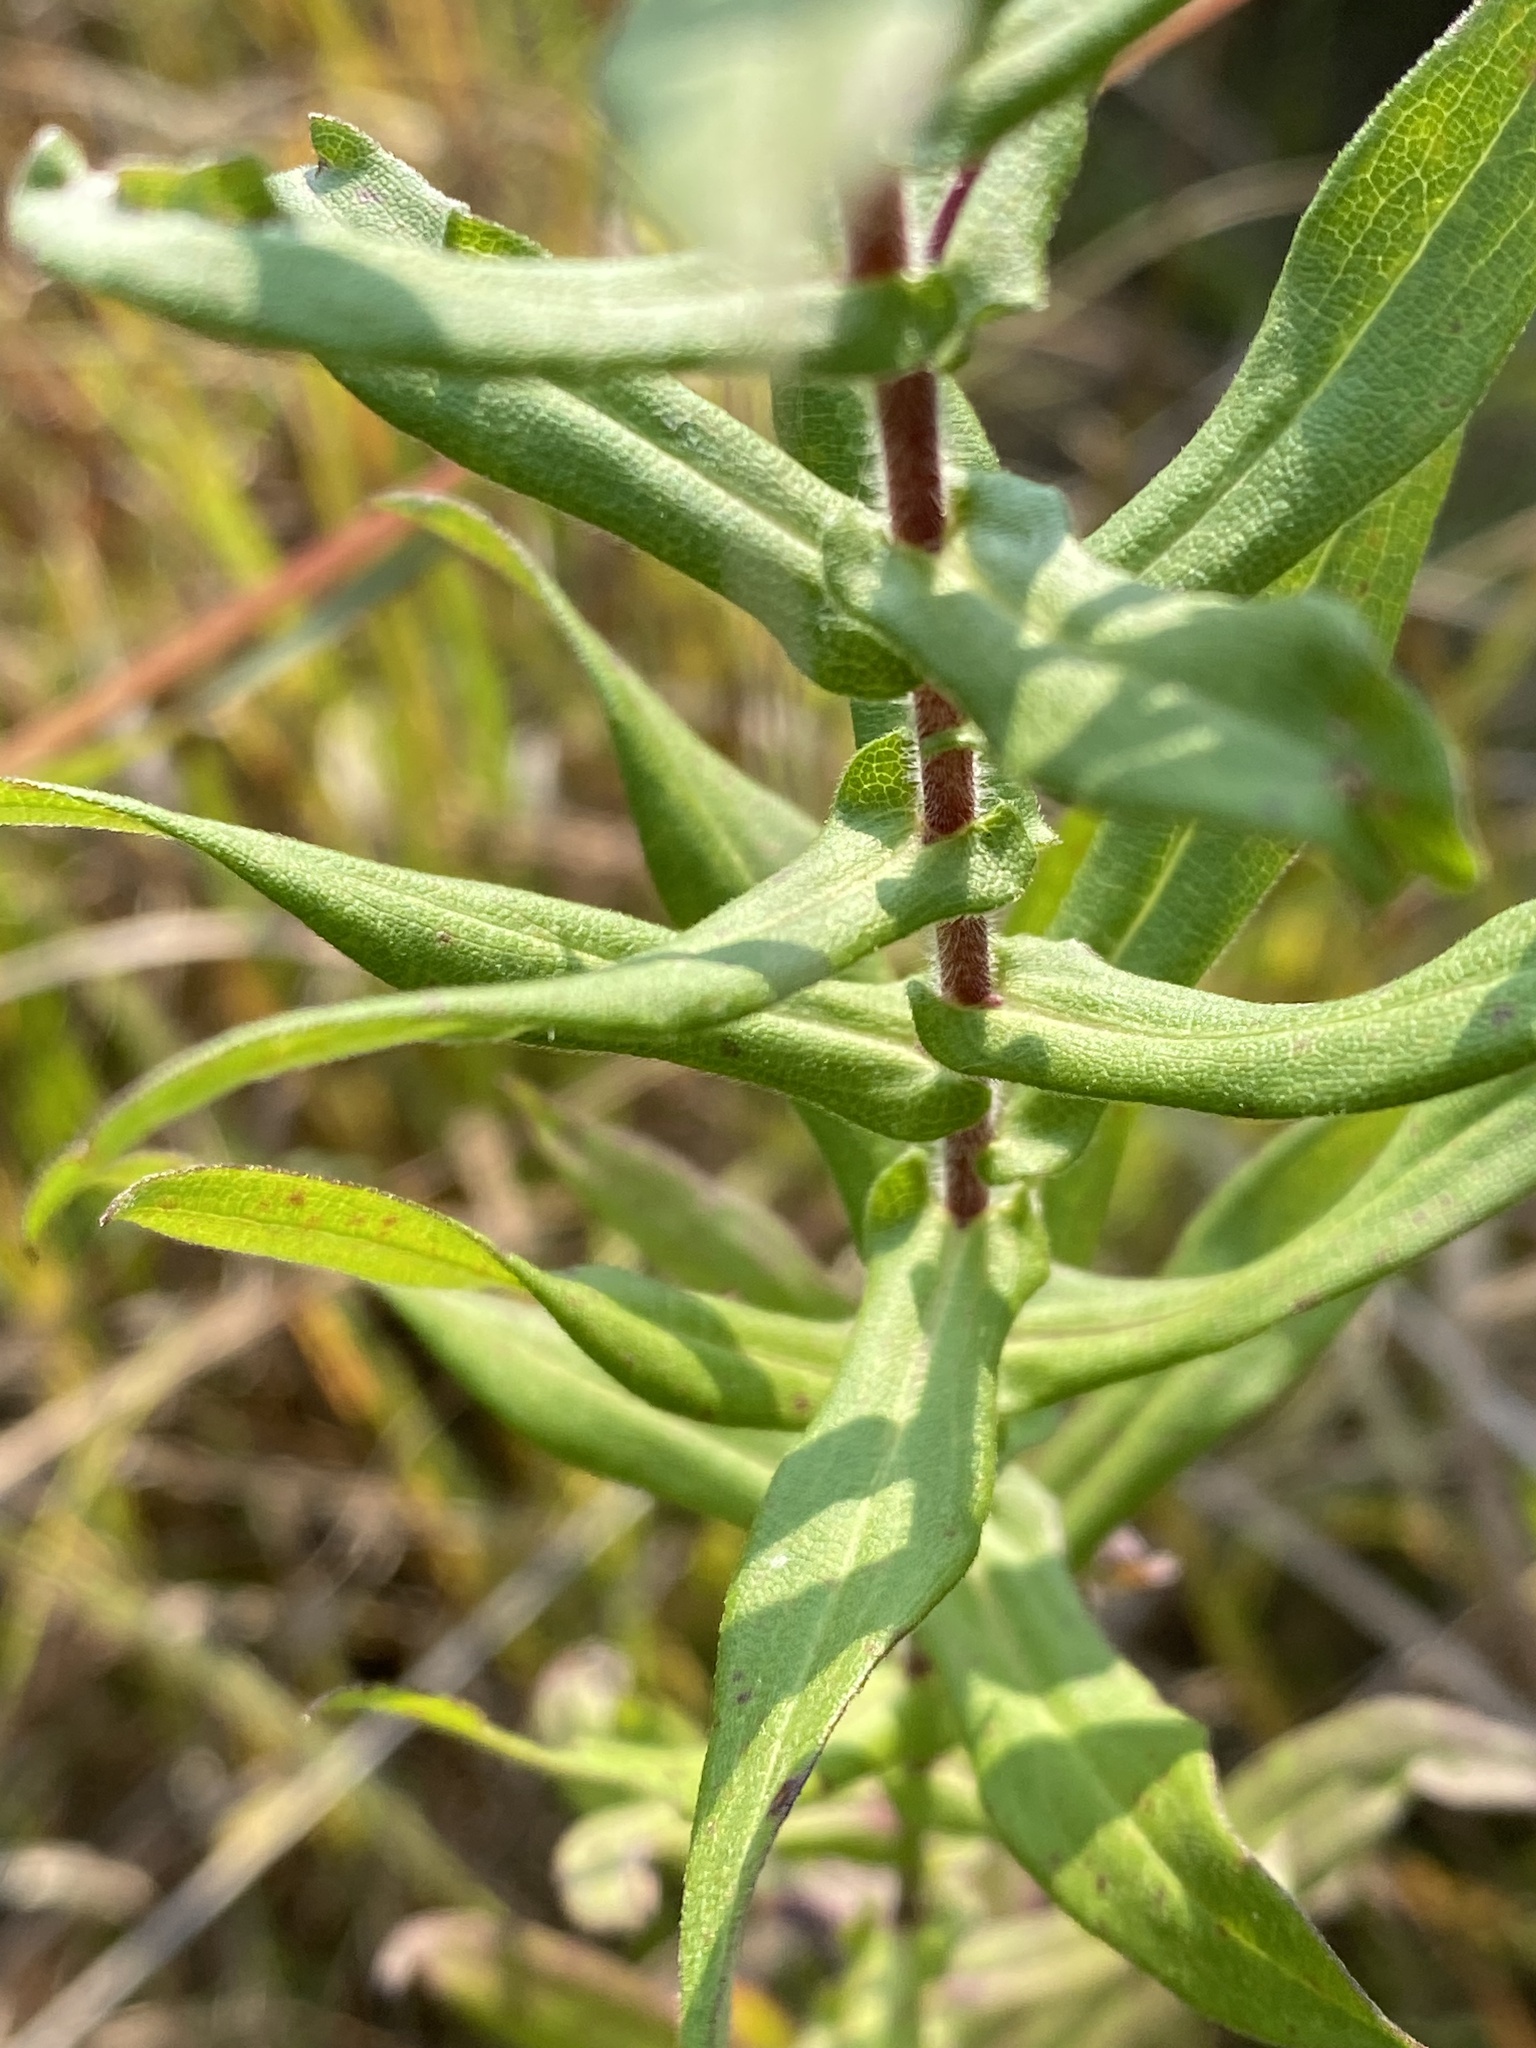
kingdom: Plantae
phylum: Tracheophyta
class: Magnoliopsida
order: Asterales
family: Asteraceae
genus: Symphyotrichum
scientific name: Symphyotrichum novae-angliae
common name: Michaelmas daisy
